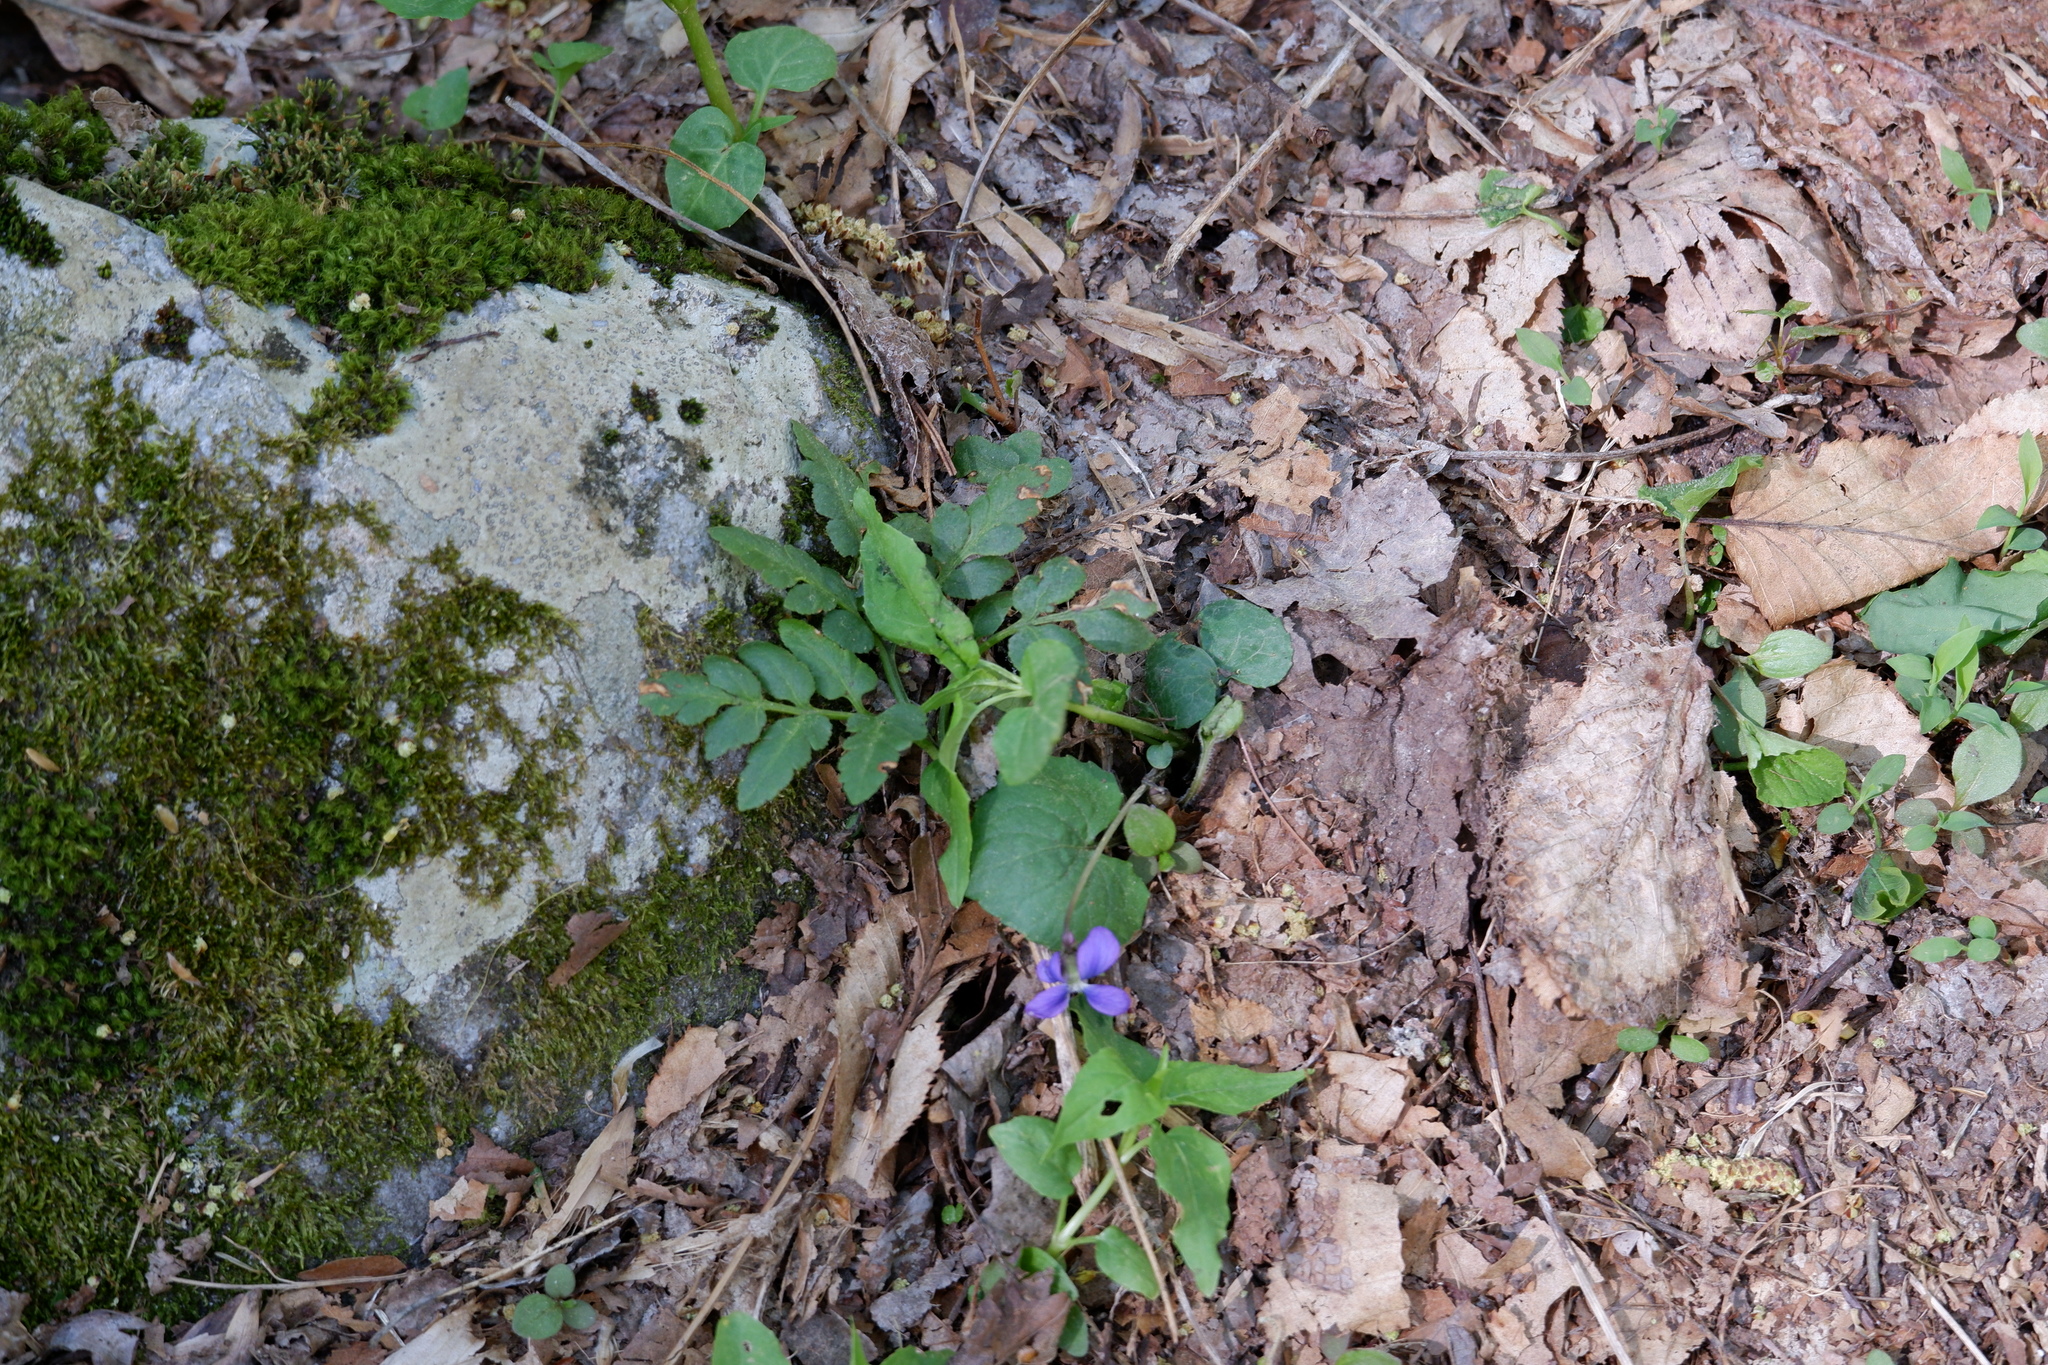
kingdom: Plantae
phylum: Tracheophyta
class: Polypodiopsida
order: Ophioglossales
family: Ophioglossaceae
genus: Sceptridium
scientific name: Sceptridium dissectum
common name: Cut-leaved grapefern
